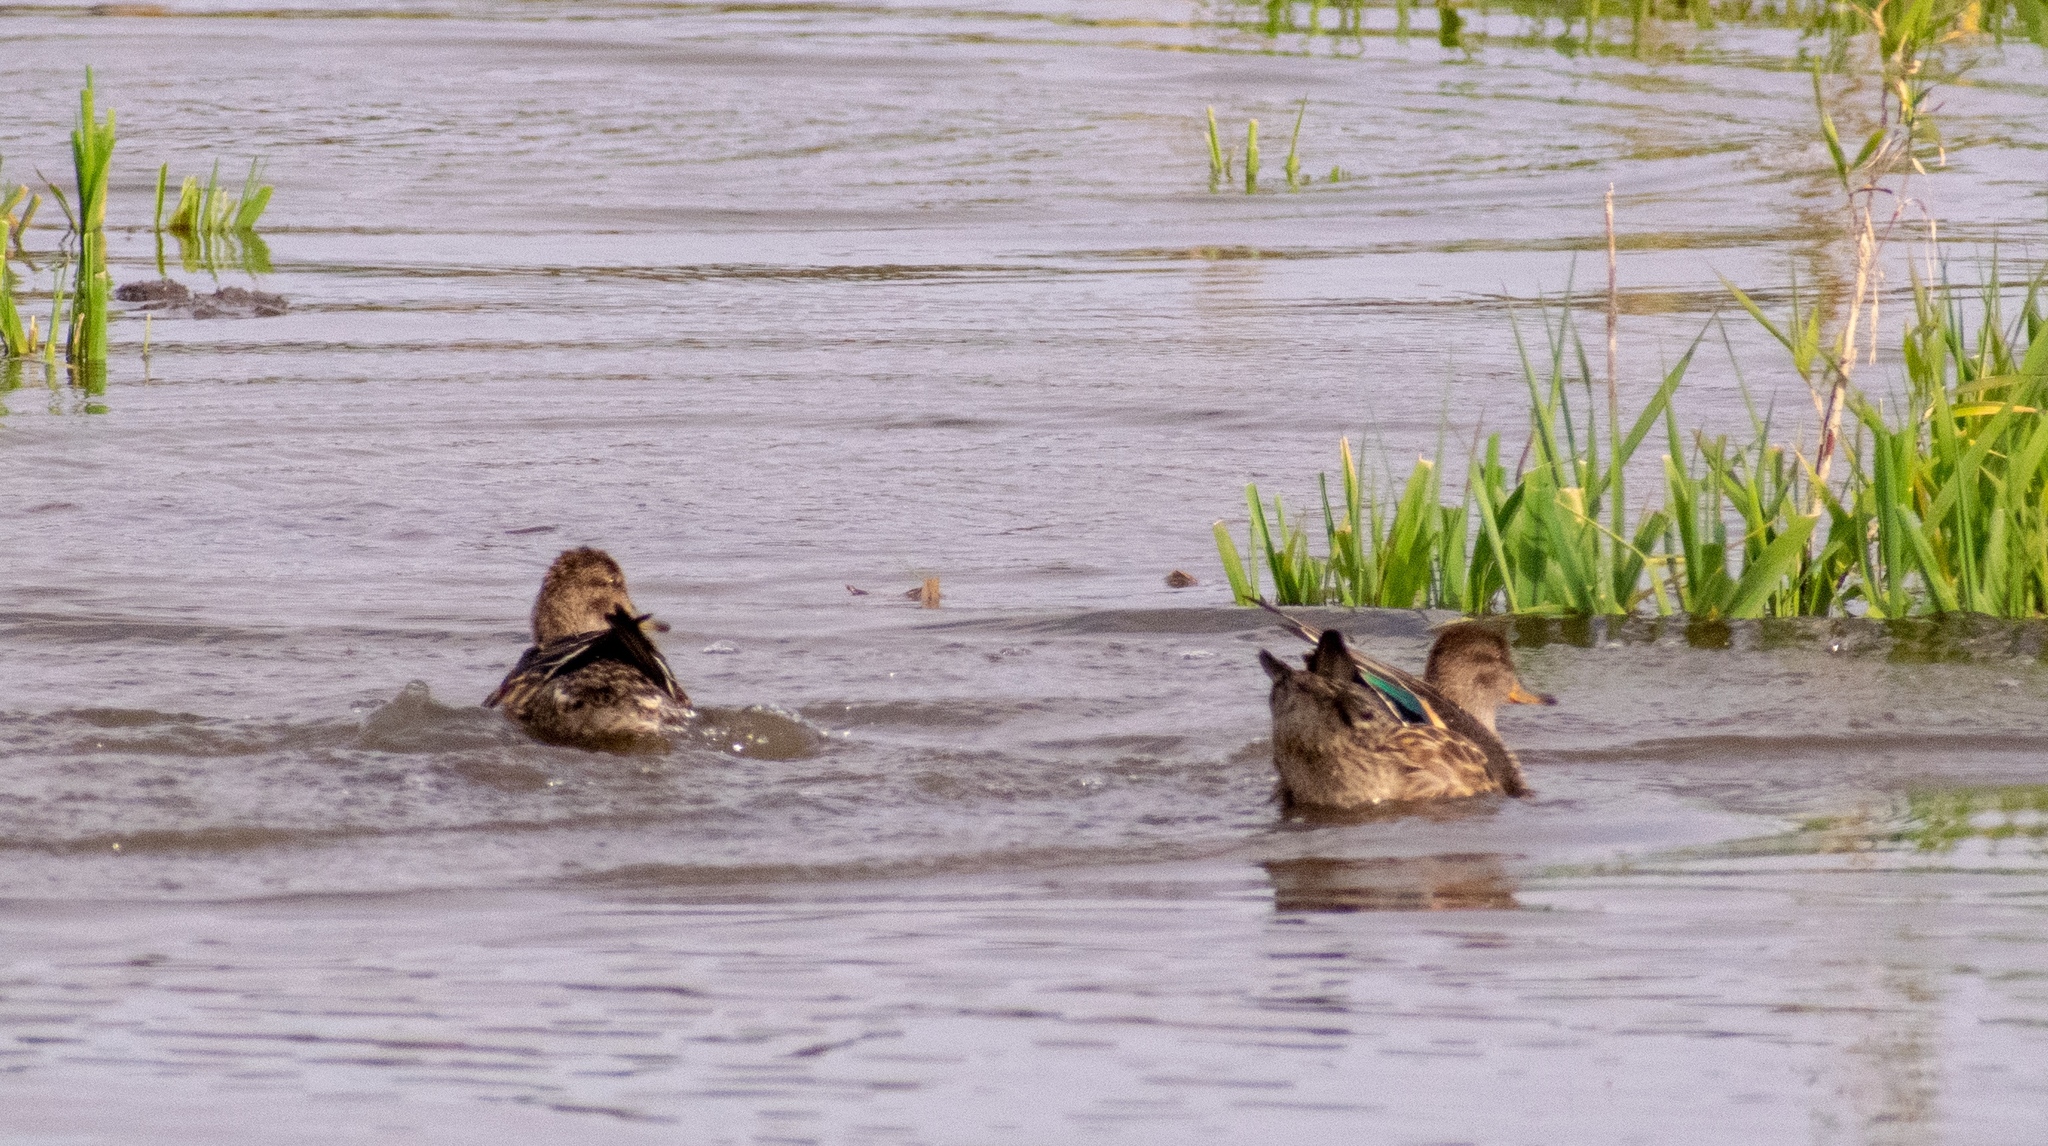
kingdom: Animalia
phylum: Chordata
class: Aves
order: Anseriformes
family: Anatidae
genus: Anas
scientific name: Anas crecca
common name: Eurasian teal
